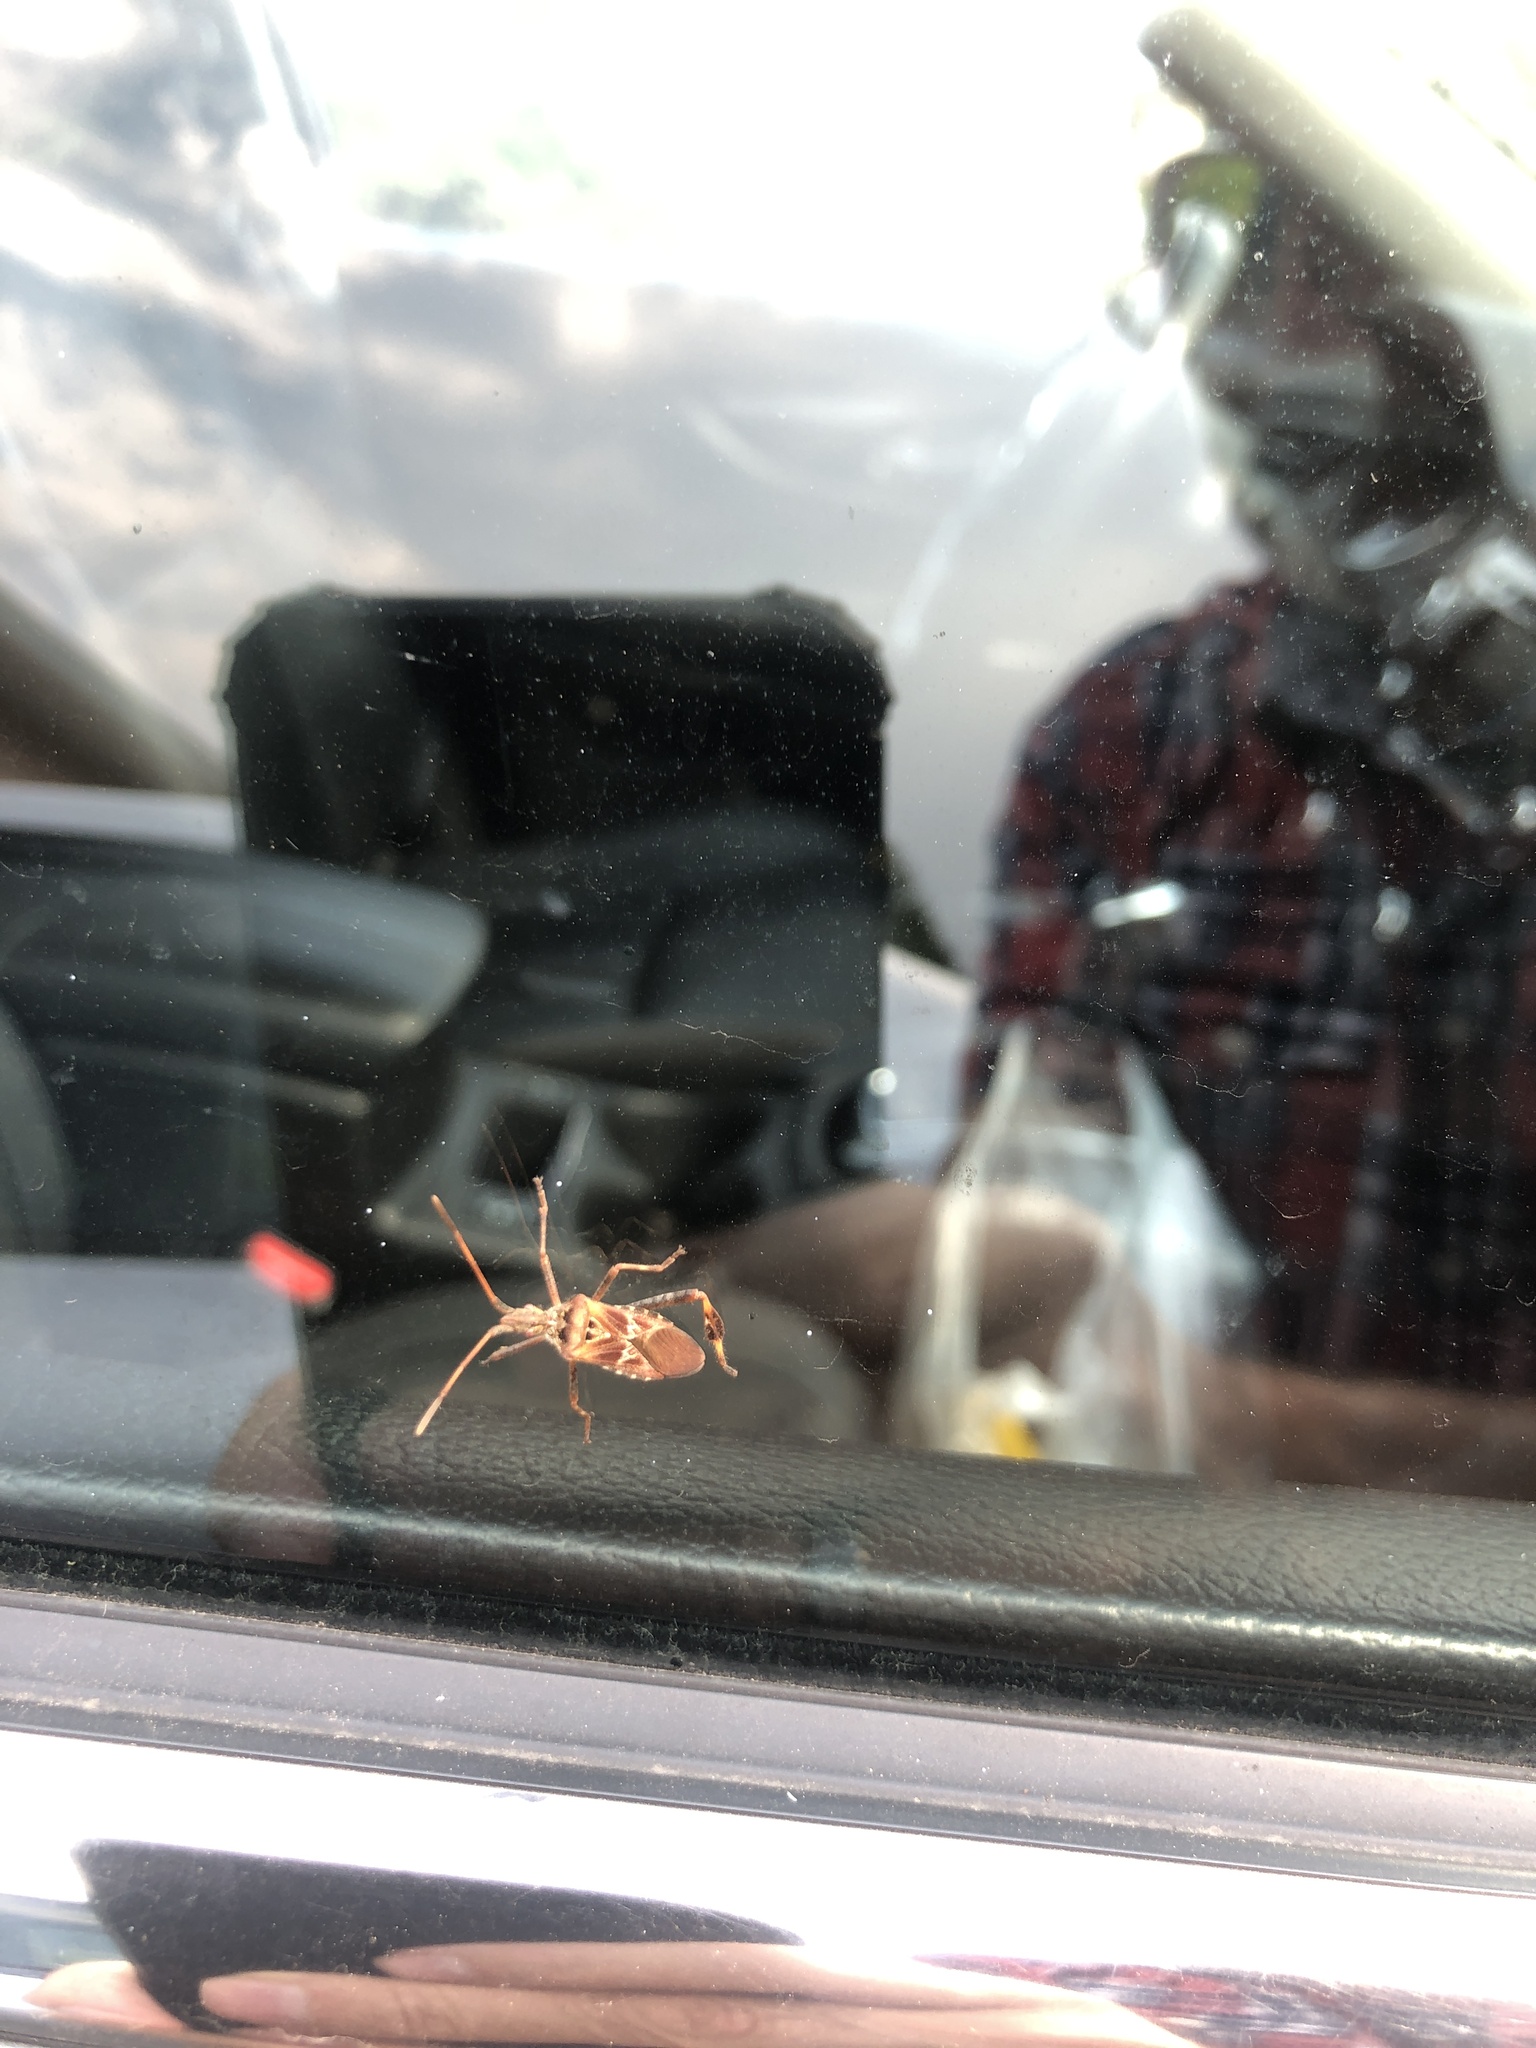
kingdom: Animalia
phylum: Arthropoda
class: Insecta
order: Hemiptera
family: Coreidae
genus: Leptoglossus
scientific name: Leptoglossus occidentalis
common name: Western conifer-seed bug
